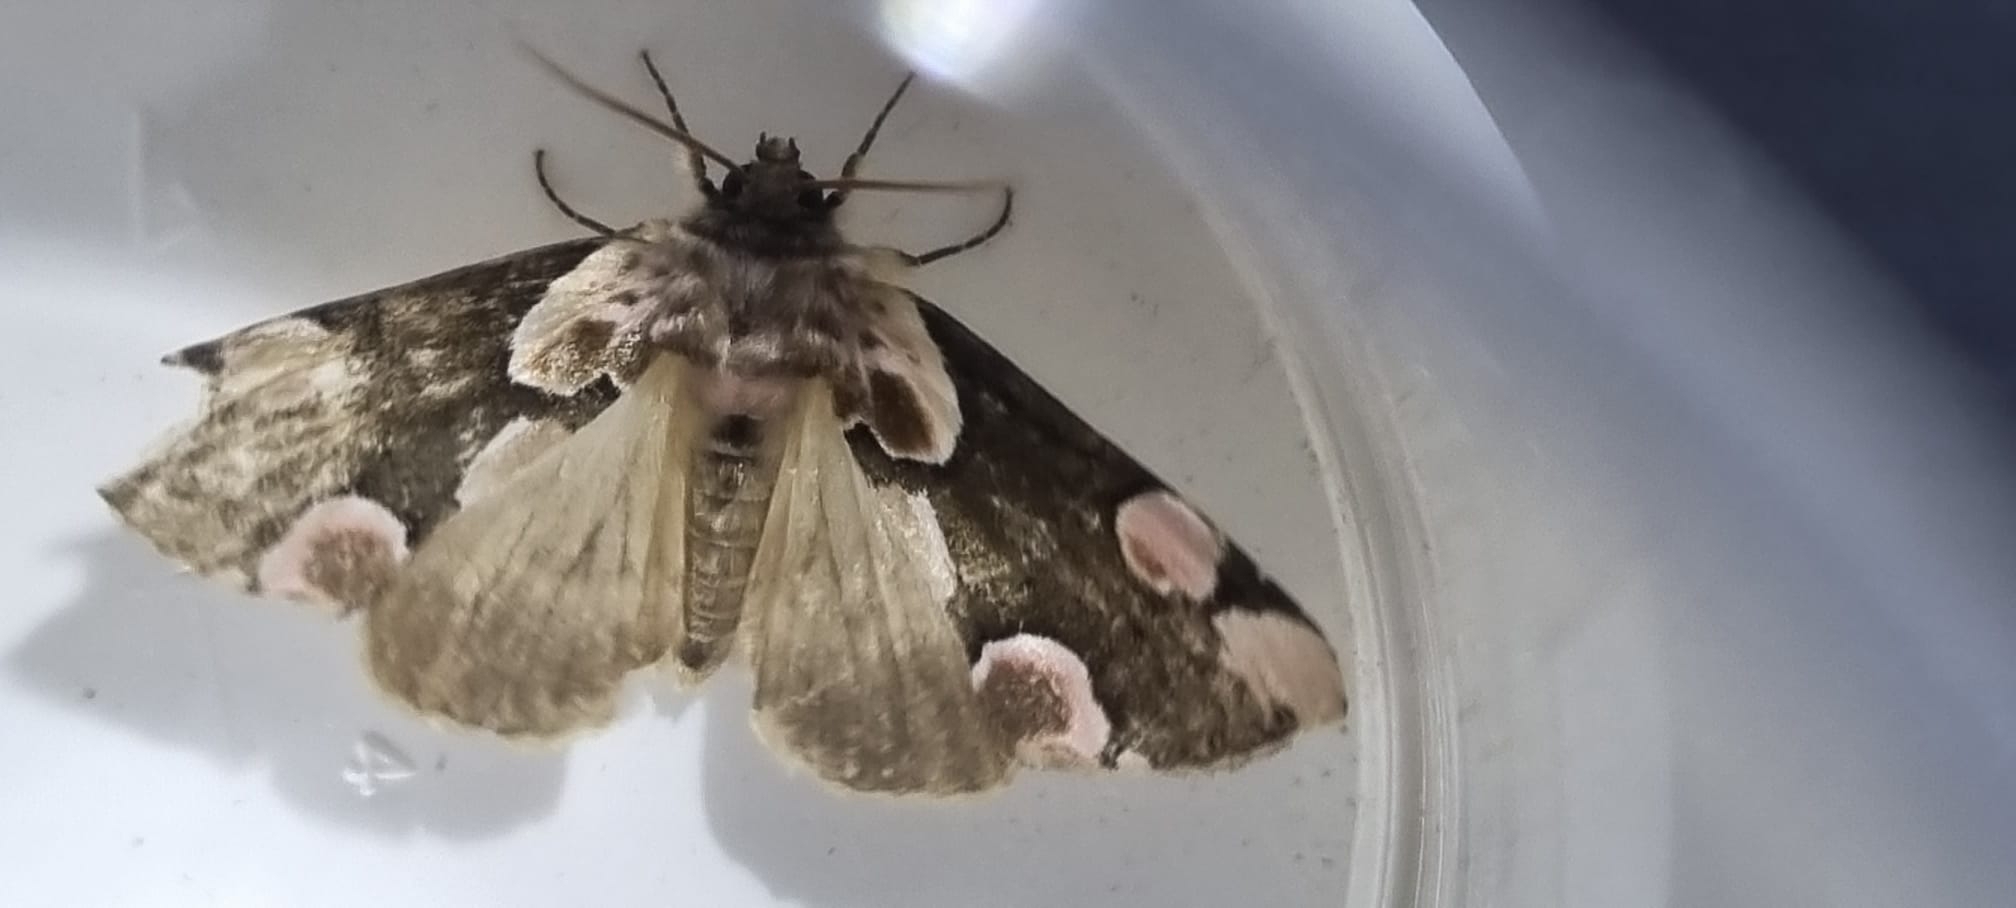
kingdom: Animalia
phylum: Arthropoda
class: Insecta
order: Lepidoptera
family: Drepanidae
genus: Thyatira
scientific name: Thyatira batis
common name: Peach blossom
